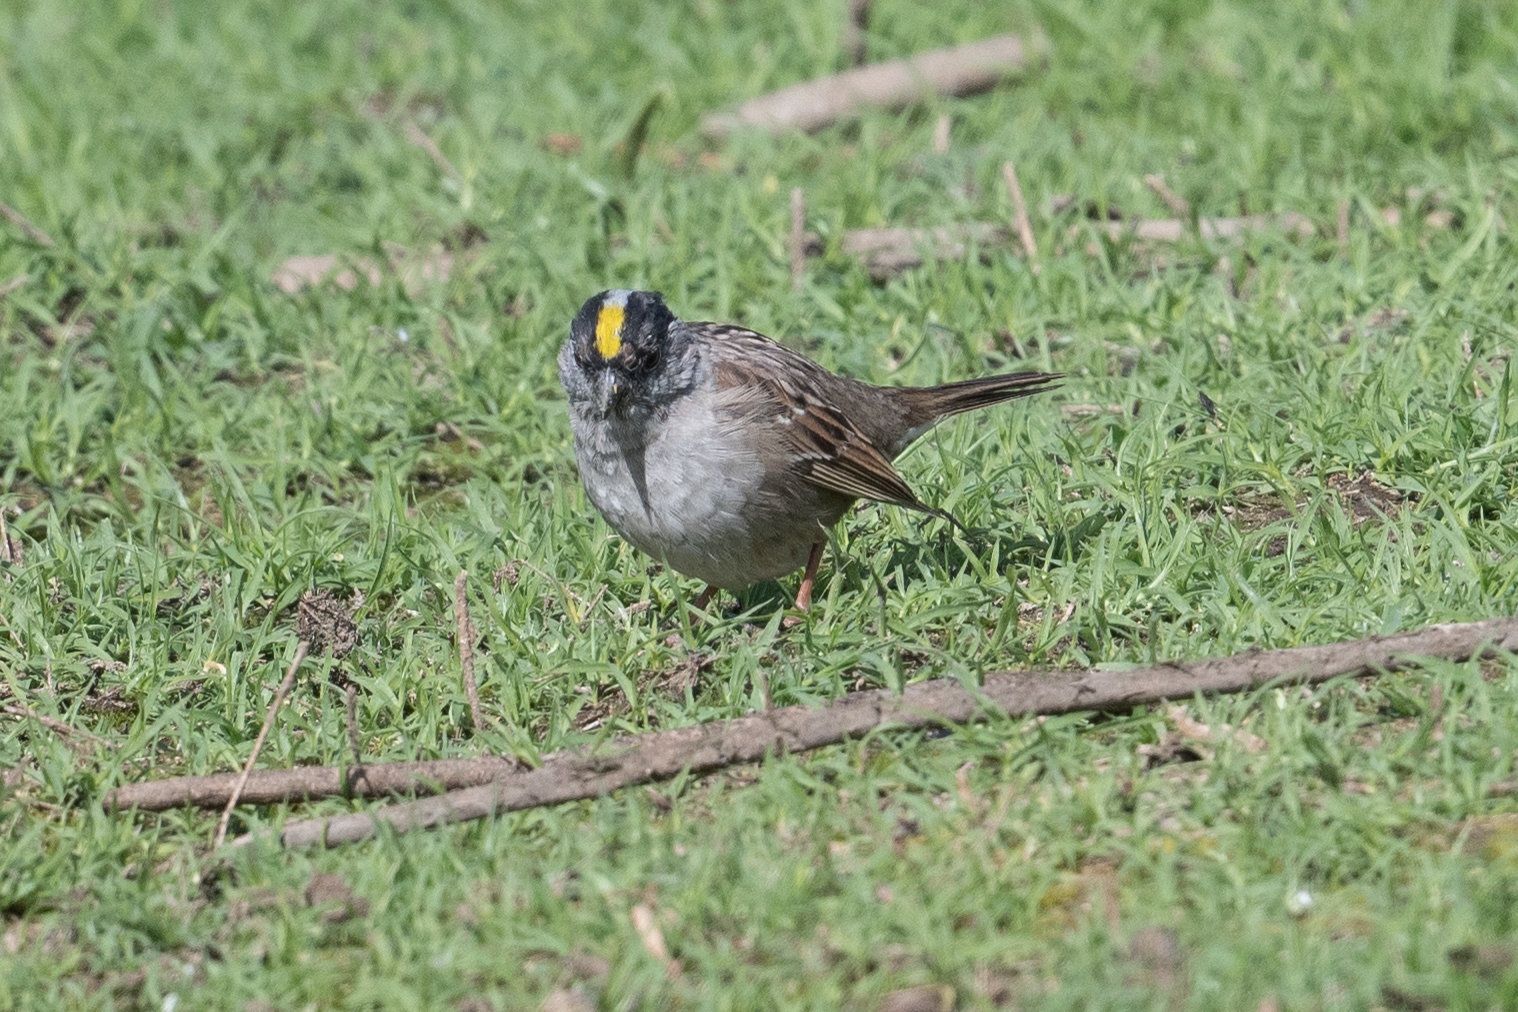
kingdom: Animalia
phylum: Chordata
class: Aves
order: Passeriformes
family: Passerellidae
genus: Zonotrichia
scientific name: Zonotrichia atricapilla
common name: Golden-crowned sparrow
